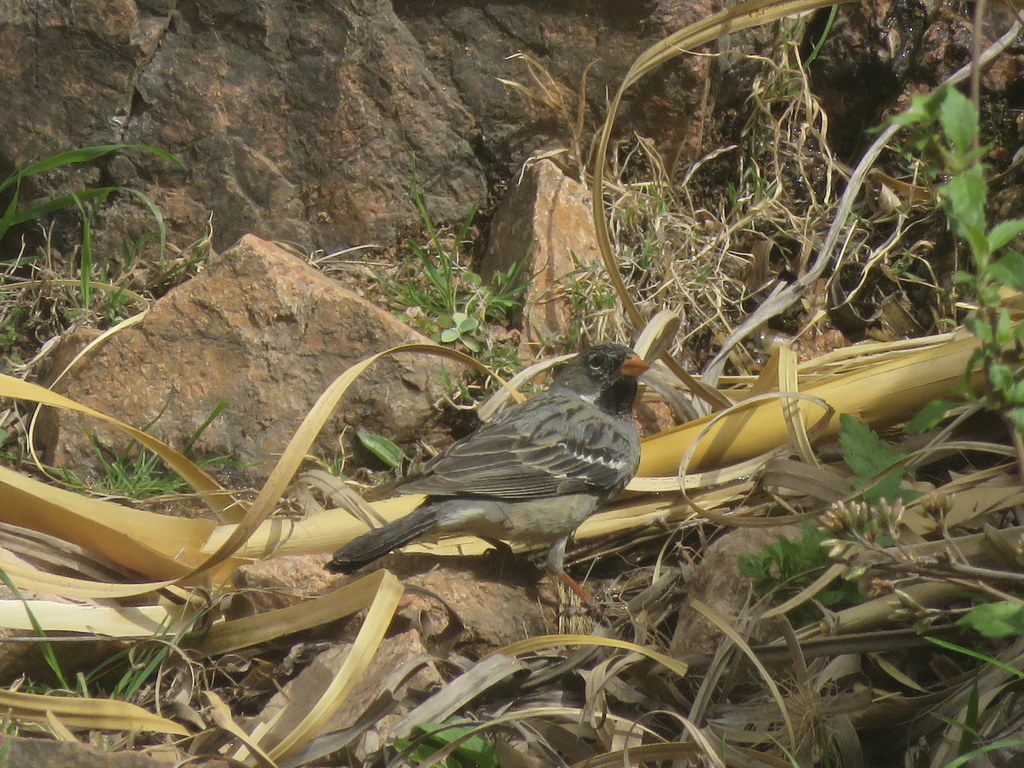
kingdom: Animalia
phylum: Chordata
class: Aves
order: Passeriformes
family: Thraupidae
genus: Rhopospina
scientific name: Rhopospina fruticeti
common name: Mourning sierra finch
